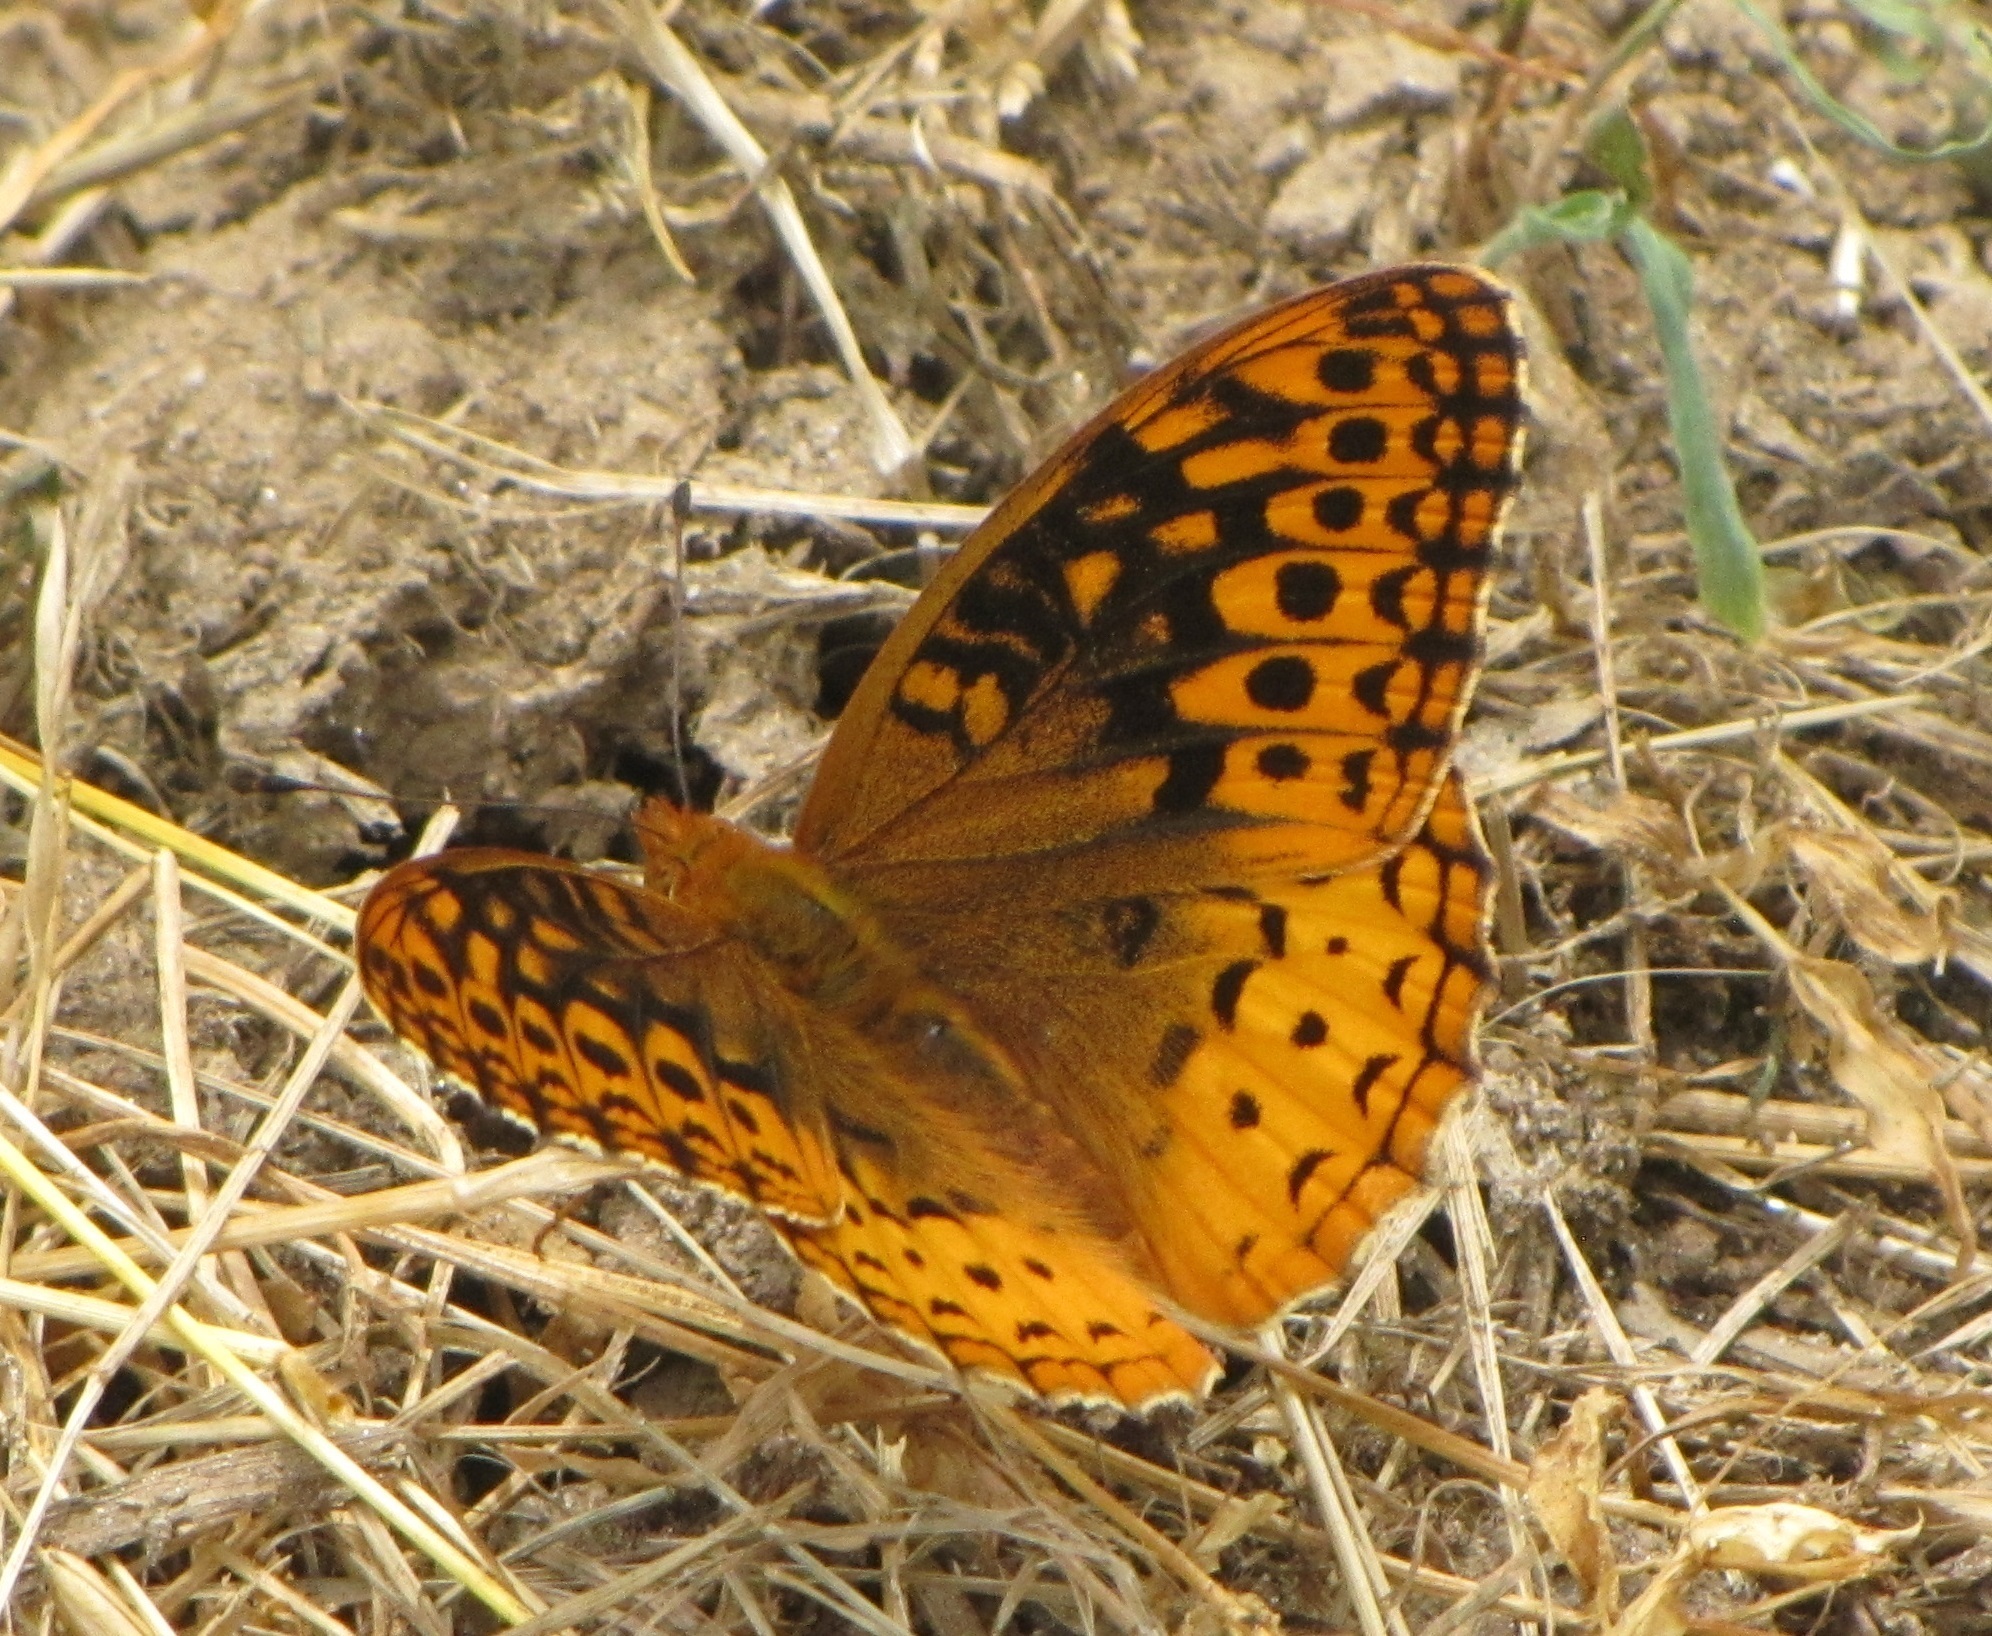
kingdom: Animalia
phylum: Arthropoda
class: Insecta
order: Lepidoptera
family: Nymphalidae
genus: Speyeria
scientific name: Speyeria cybele
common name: Great spangled fritillary
